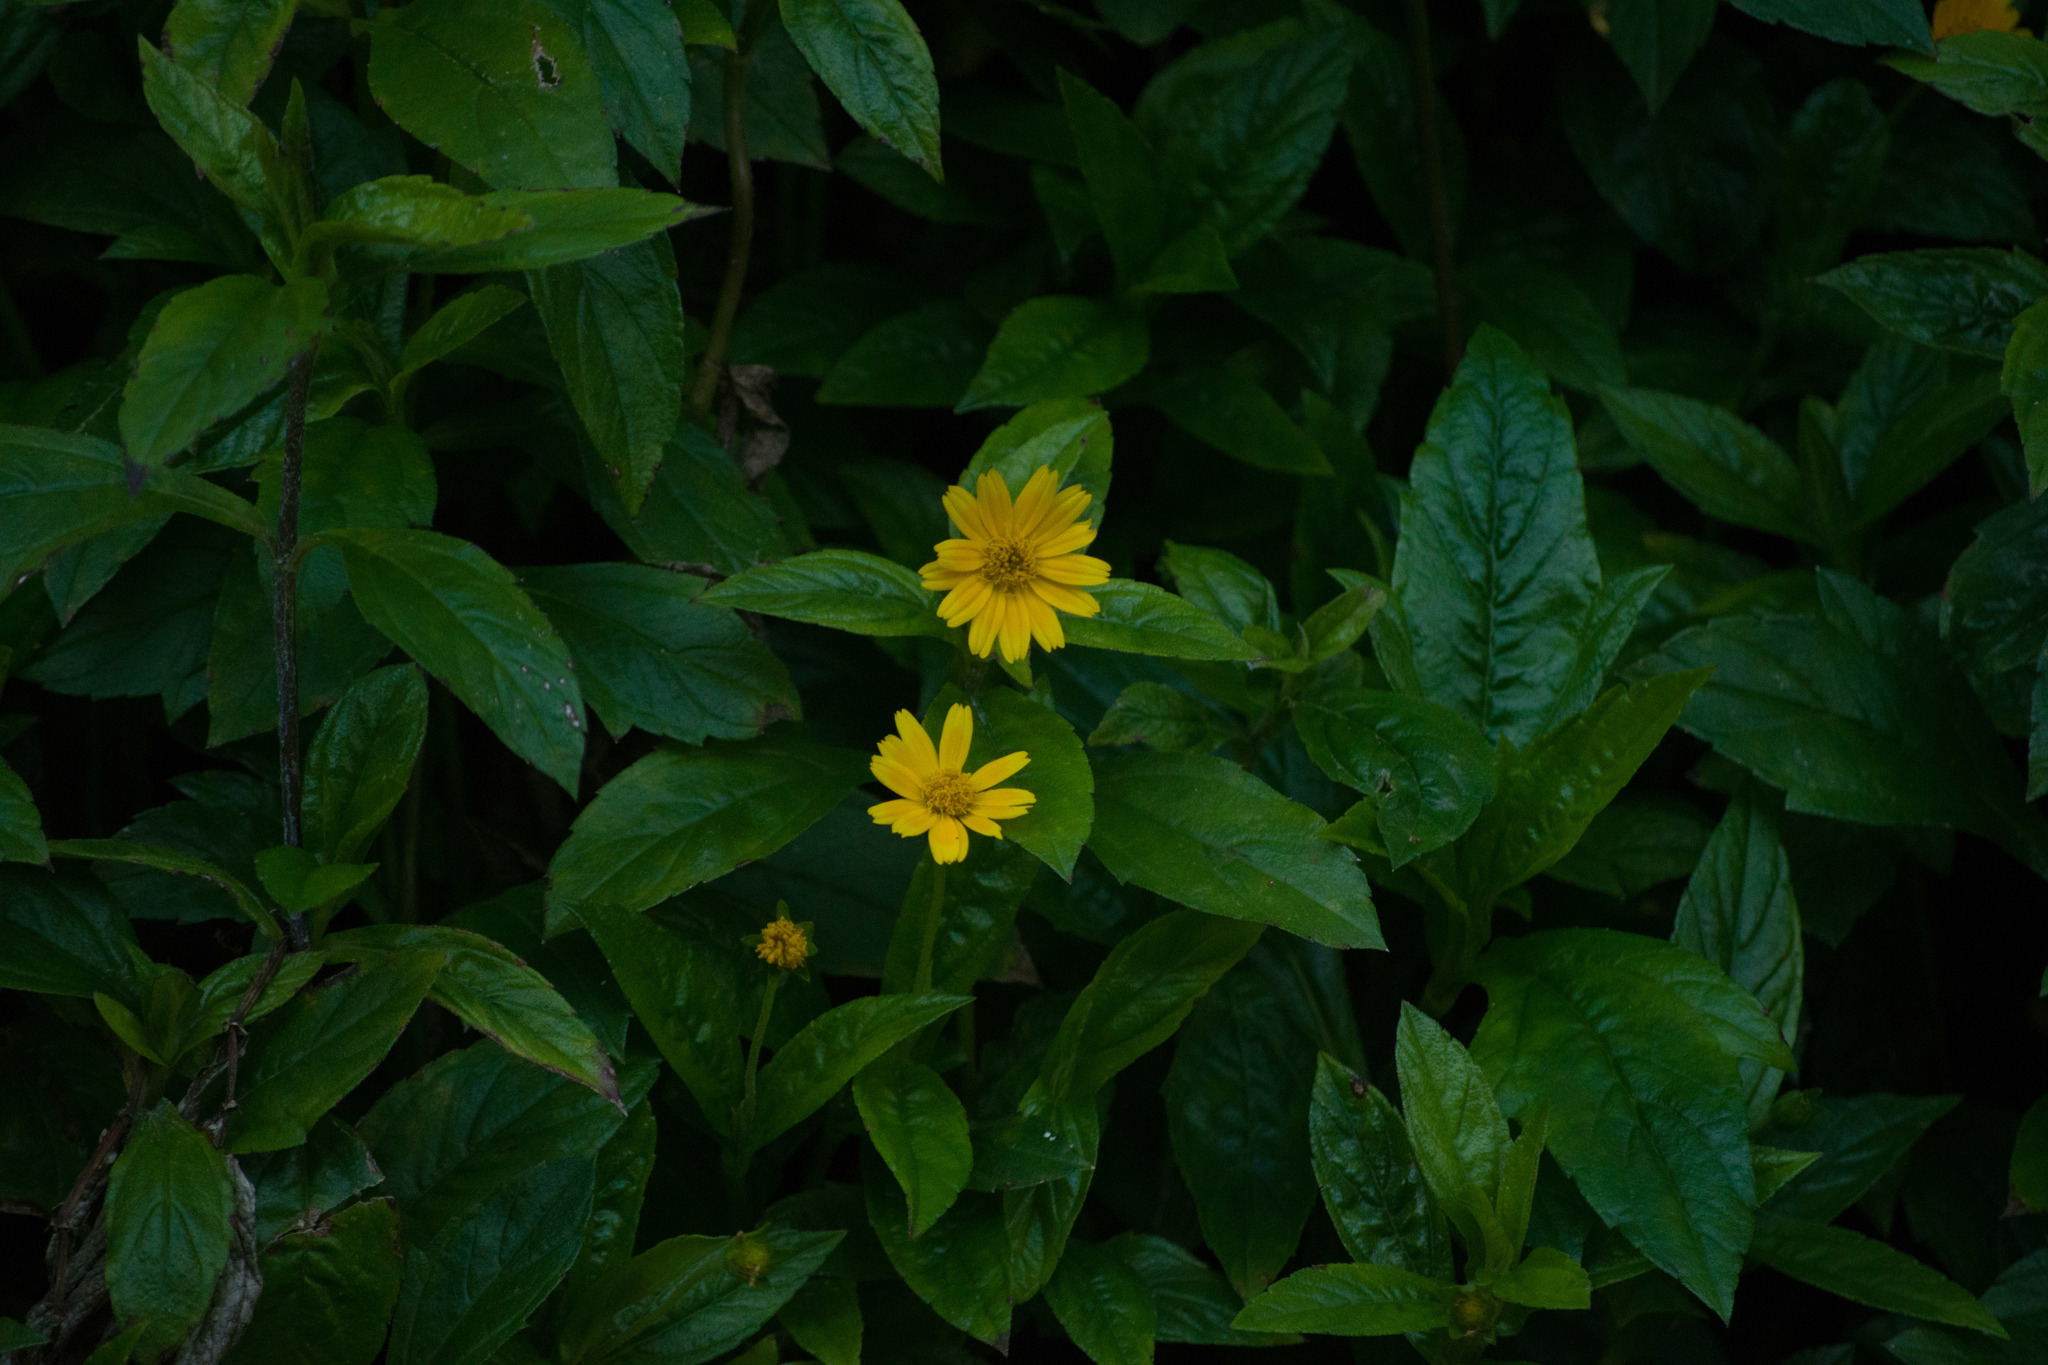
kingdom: Plantae
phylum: Tracheophyta
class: Magnoliopsida
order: Asterales
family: Asteraceae
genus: Sphagneticola
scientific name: Sphagneticola trilobata
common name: Bay biscayne creeping-oxeye
